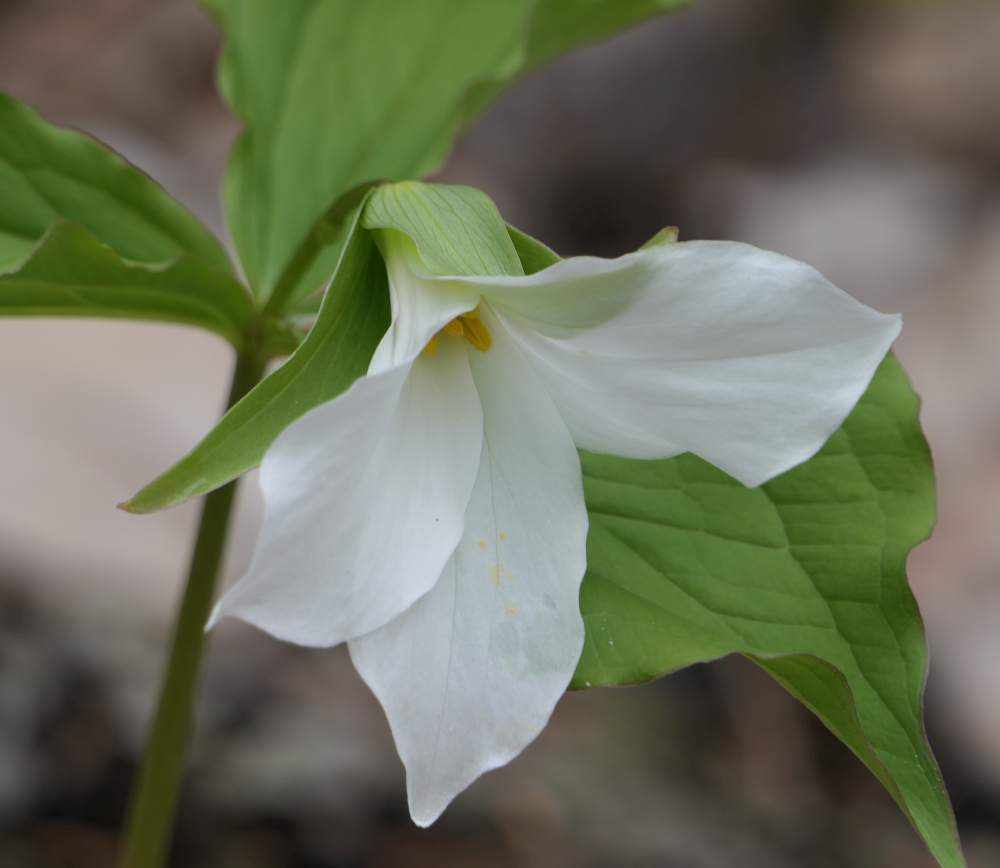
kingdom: Plantae
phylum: Tracheophyta
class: Liliopsida
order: Liliales
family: Melanthiaceae
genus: Trillium
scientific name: Trillium grandiflorum
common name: Great white trillium
